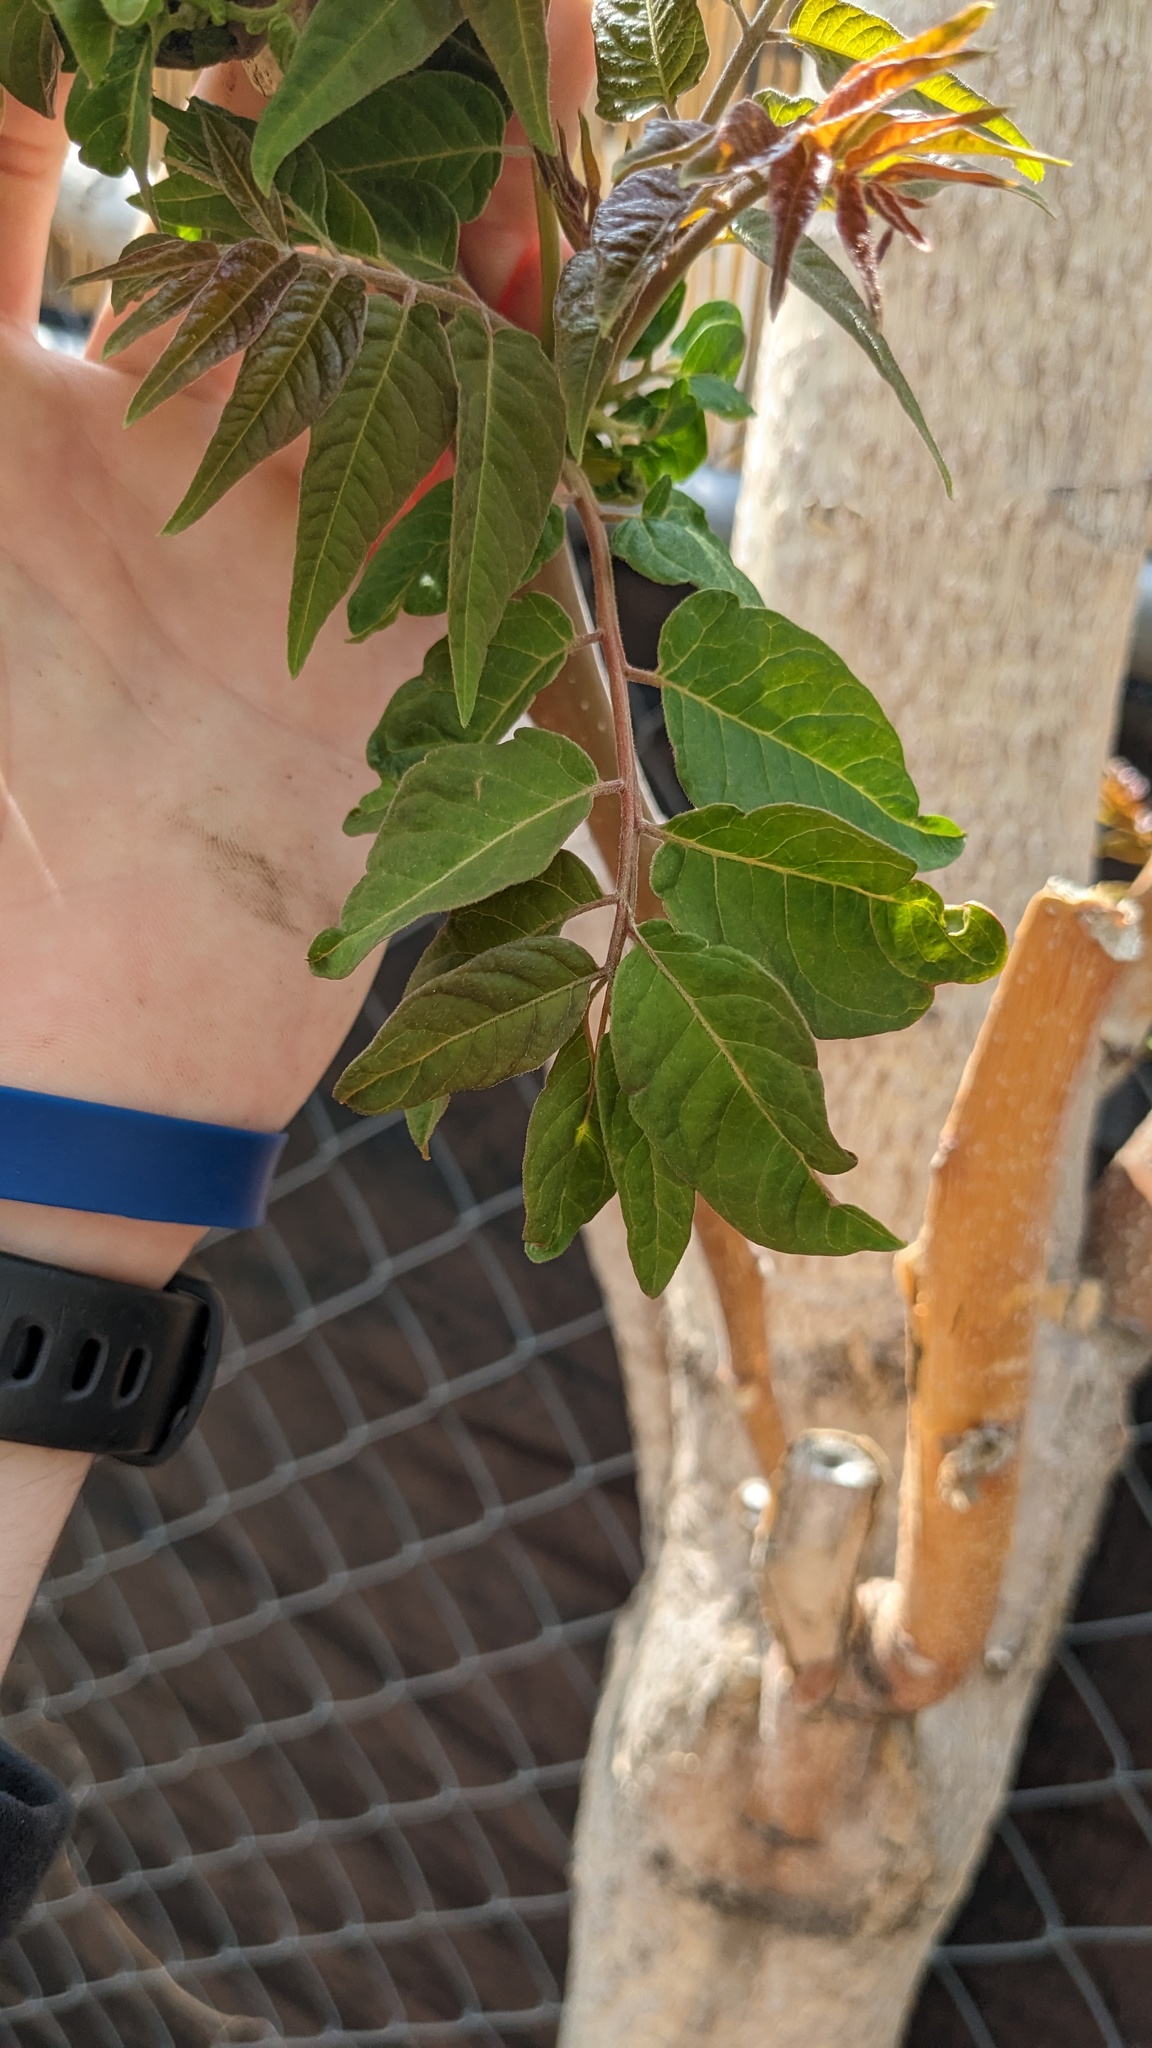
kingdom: Plantae
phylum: Tracheophyta
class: Magnoliopsida
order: Sapindales
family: Simaroubaceae
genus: Ailanthus
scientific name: Ailanthus altissima
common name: Tree-of-heaven
